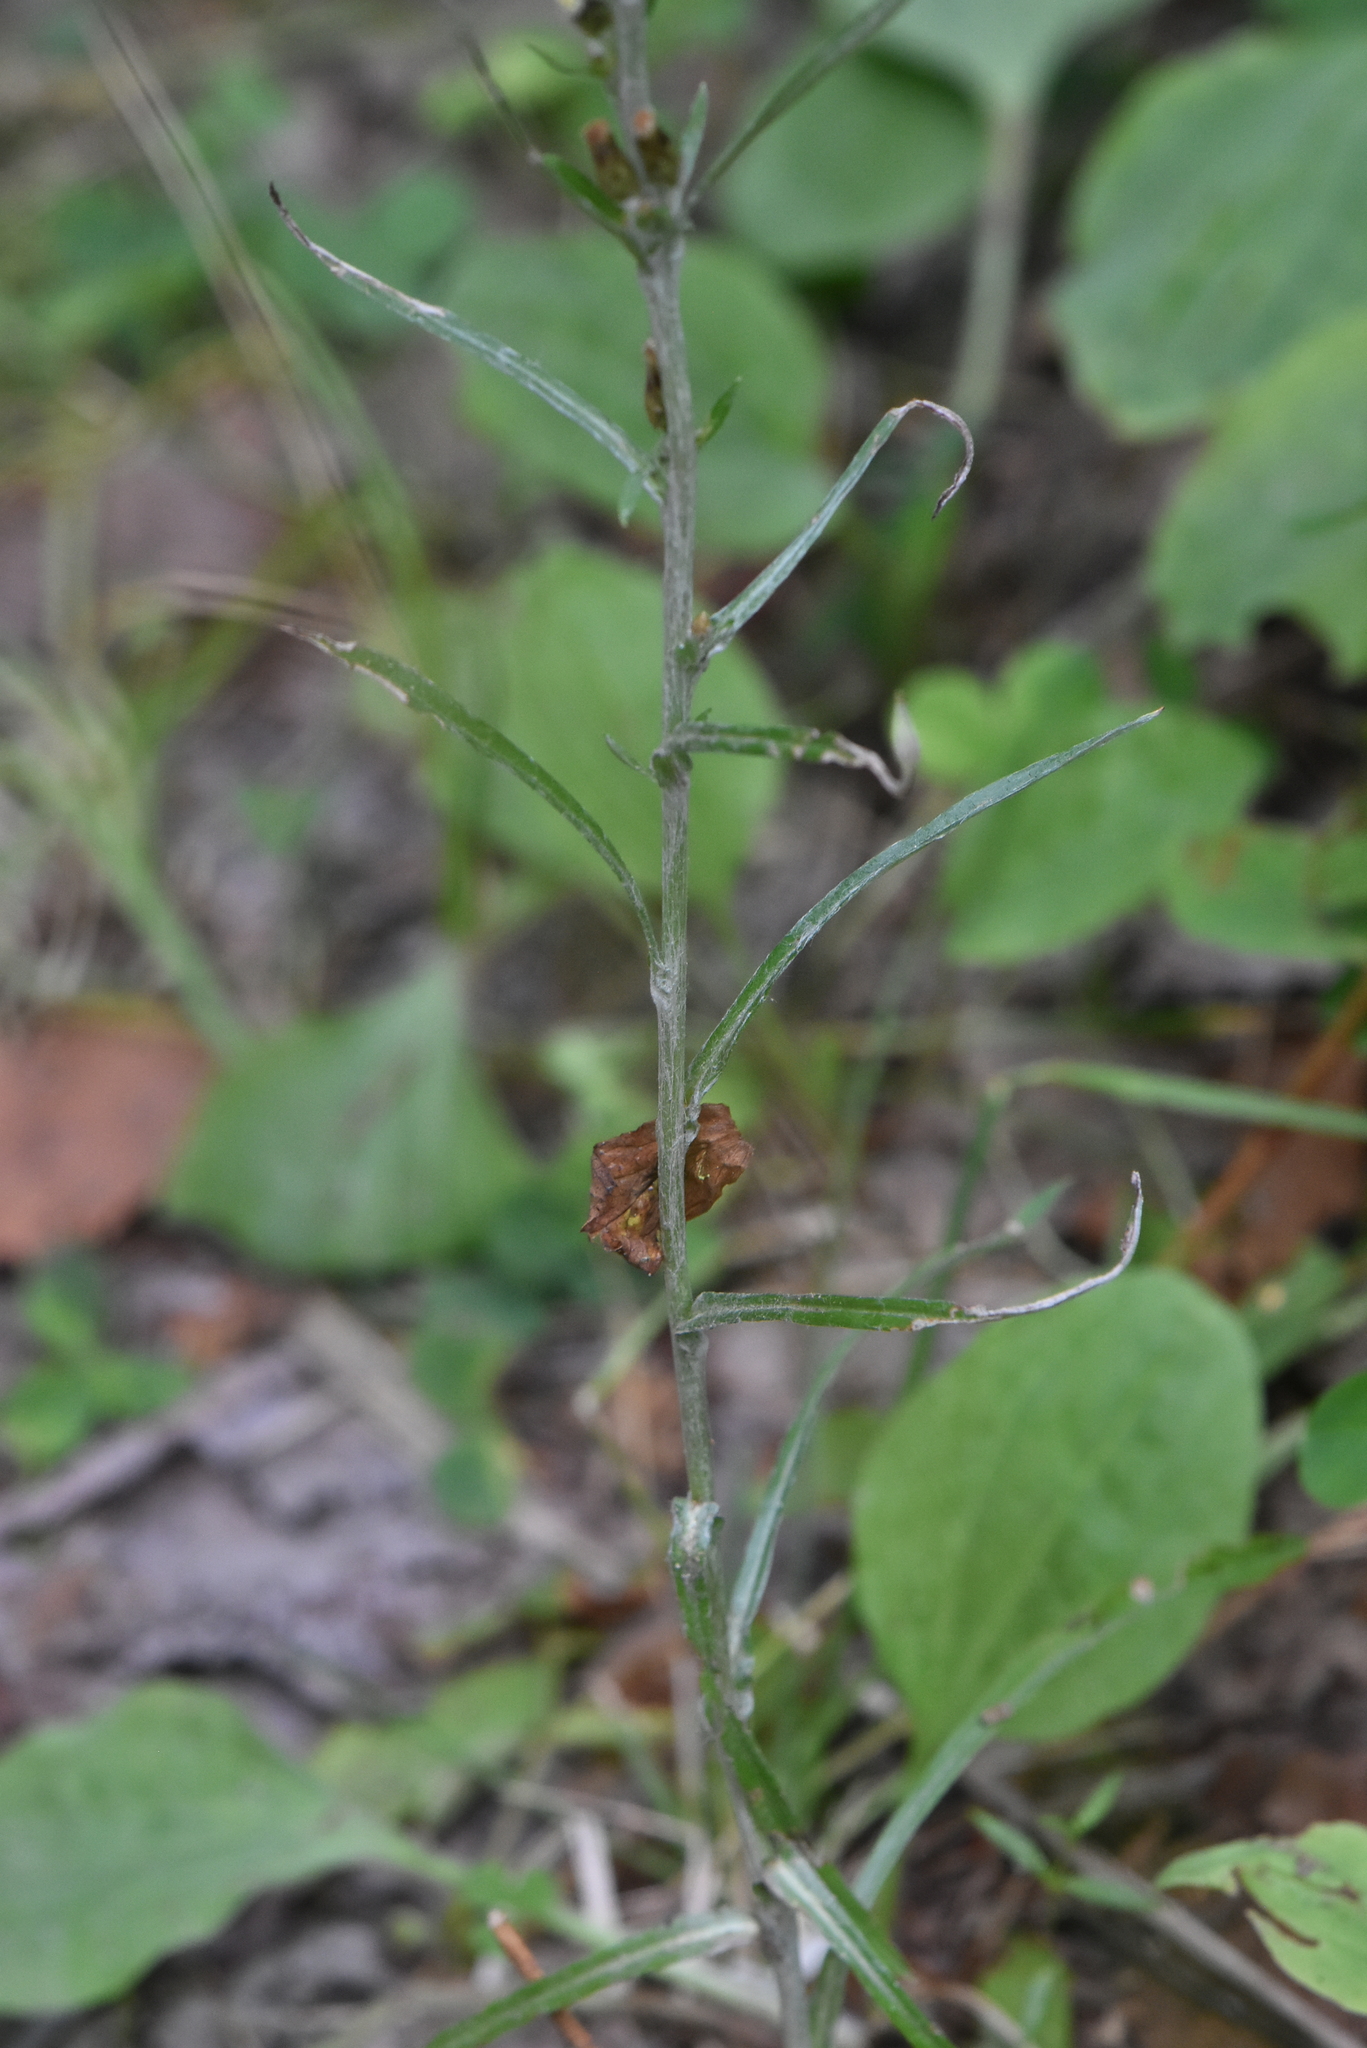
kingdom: Plantae
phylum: Tracheophyta
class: Magnoliopsida
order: Asterales
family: Asteraceae
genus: Omalotheca
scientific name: Omalotheca sylvatica
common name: Heath cudweed
